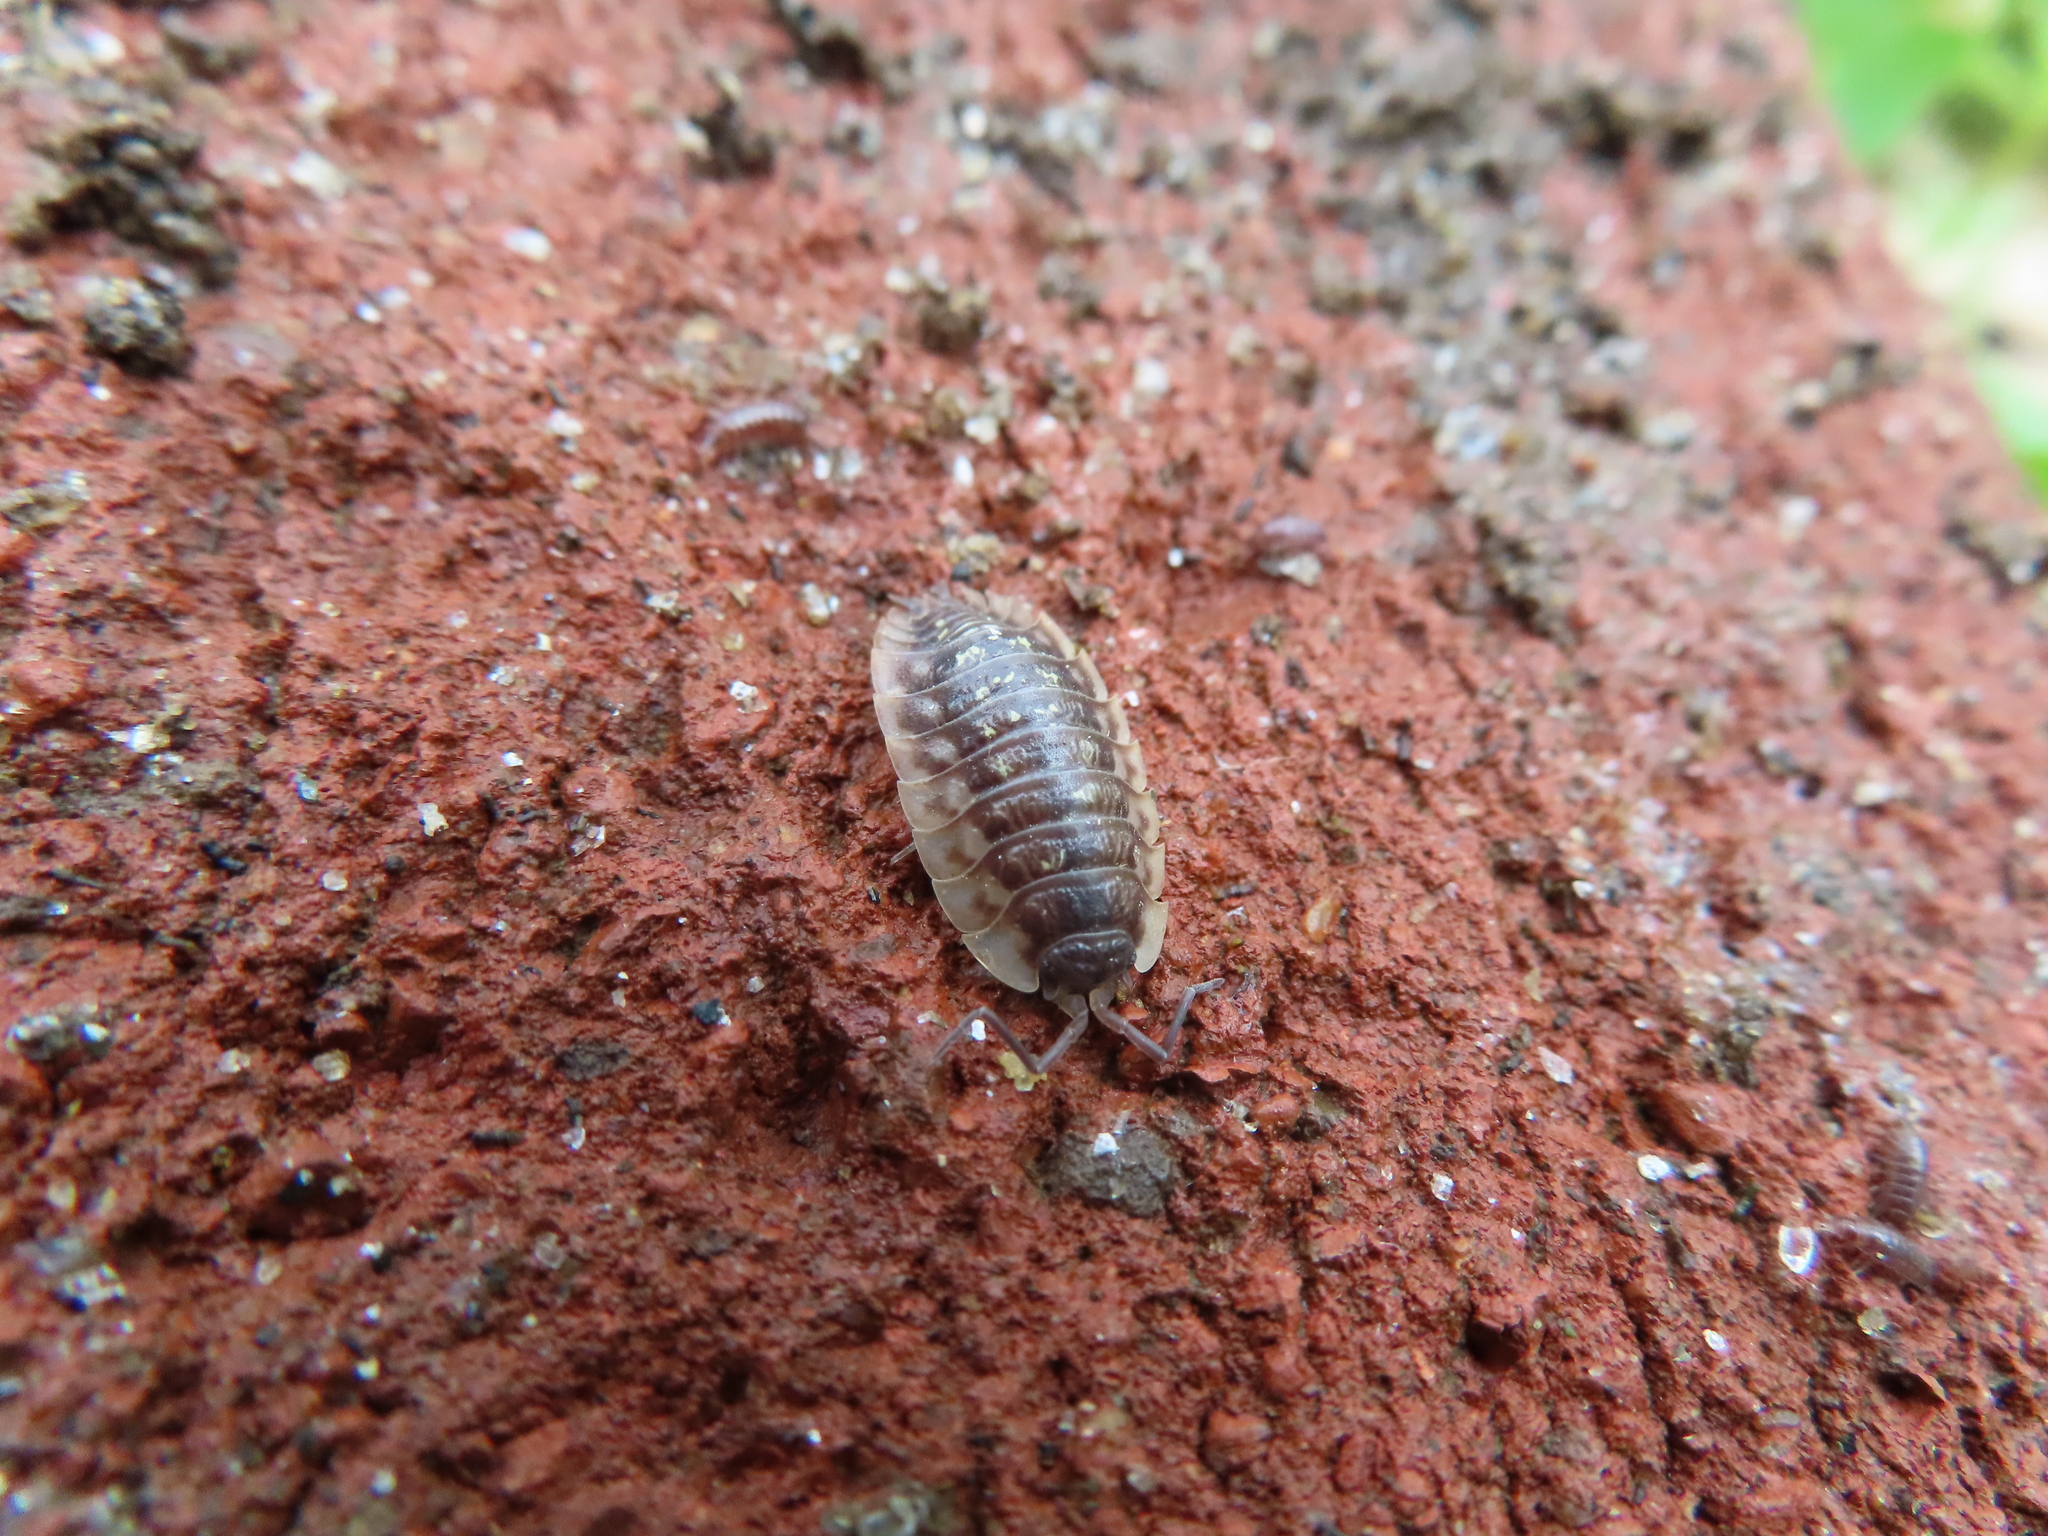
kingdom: Animalia
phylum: Arthropoda
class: Malacostraca
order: Isopoda
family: Oniscidae
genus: Oniscus
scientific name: Oniscus asellus
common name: Common shiny woodlouse
